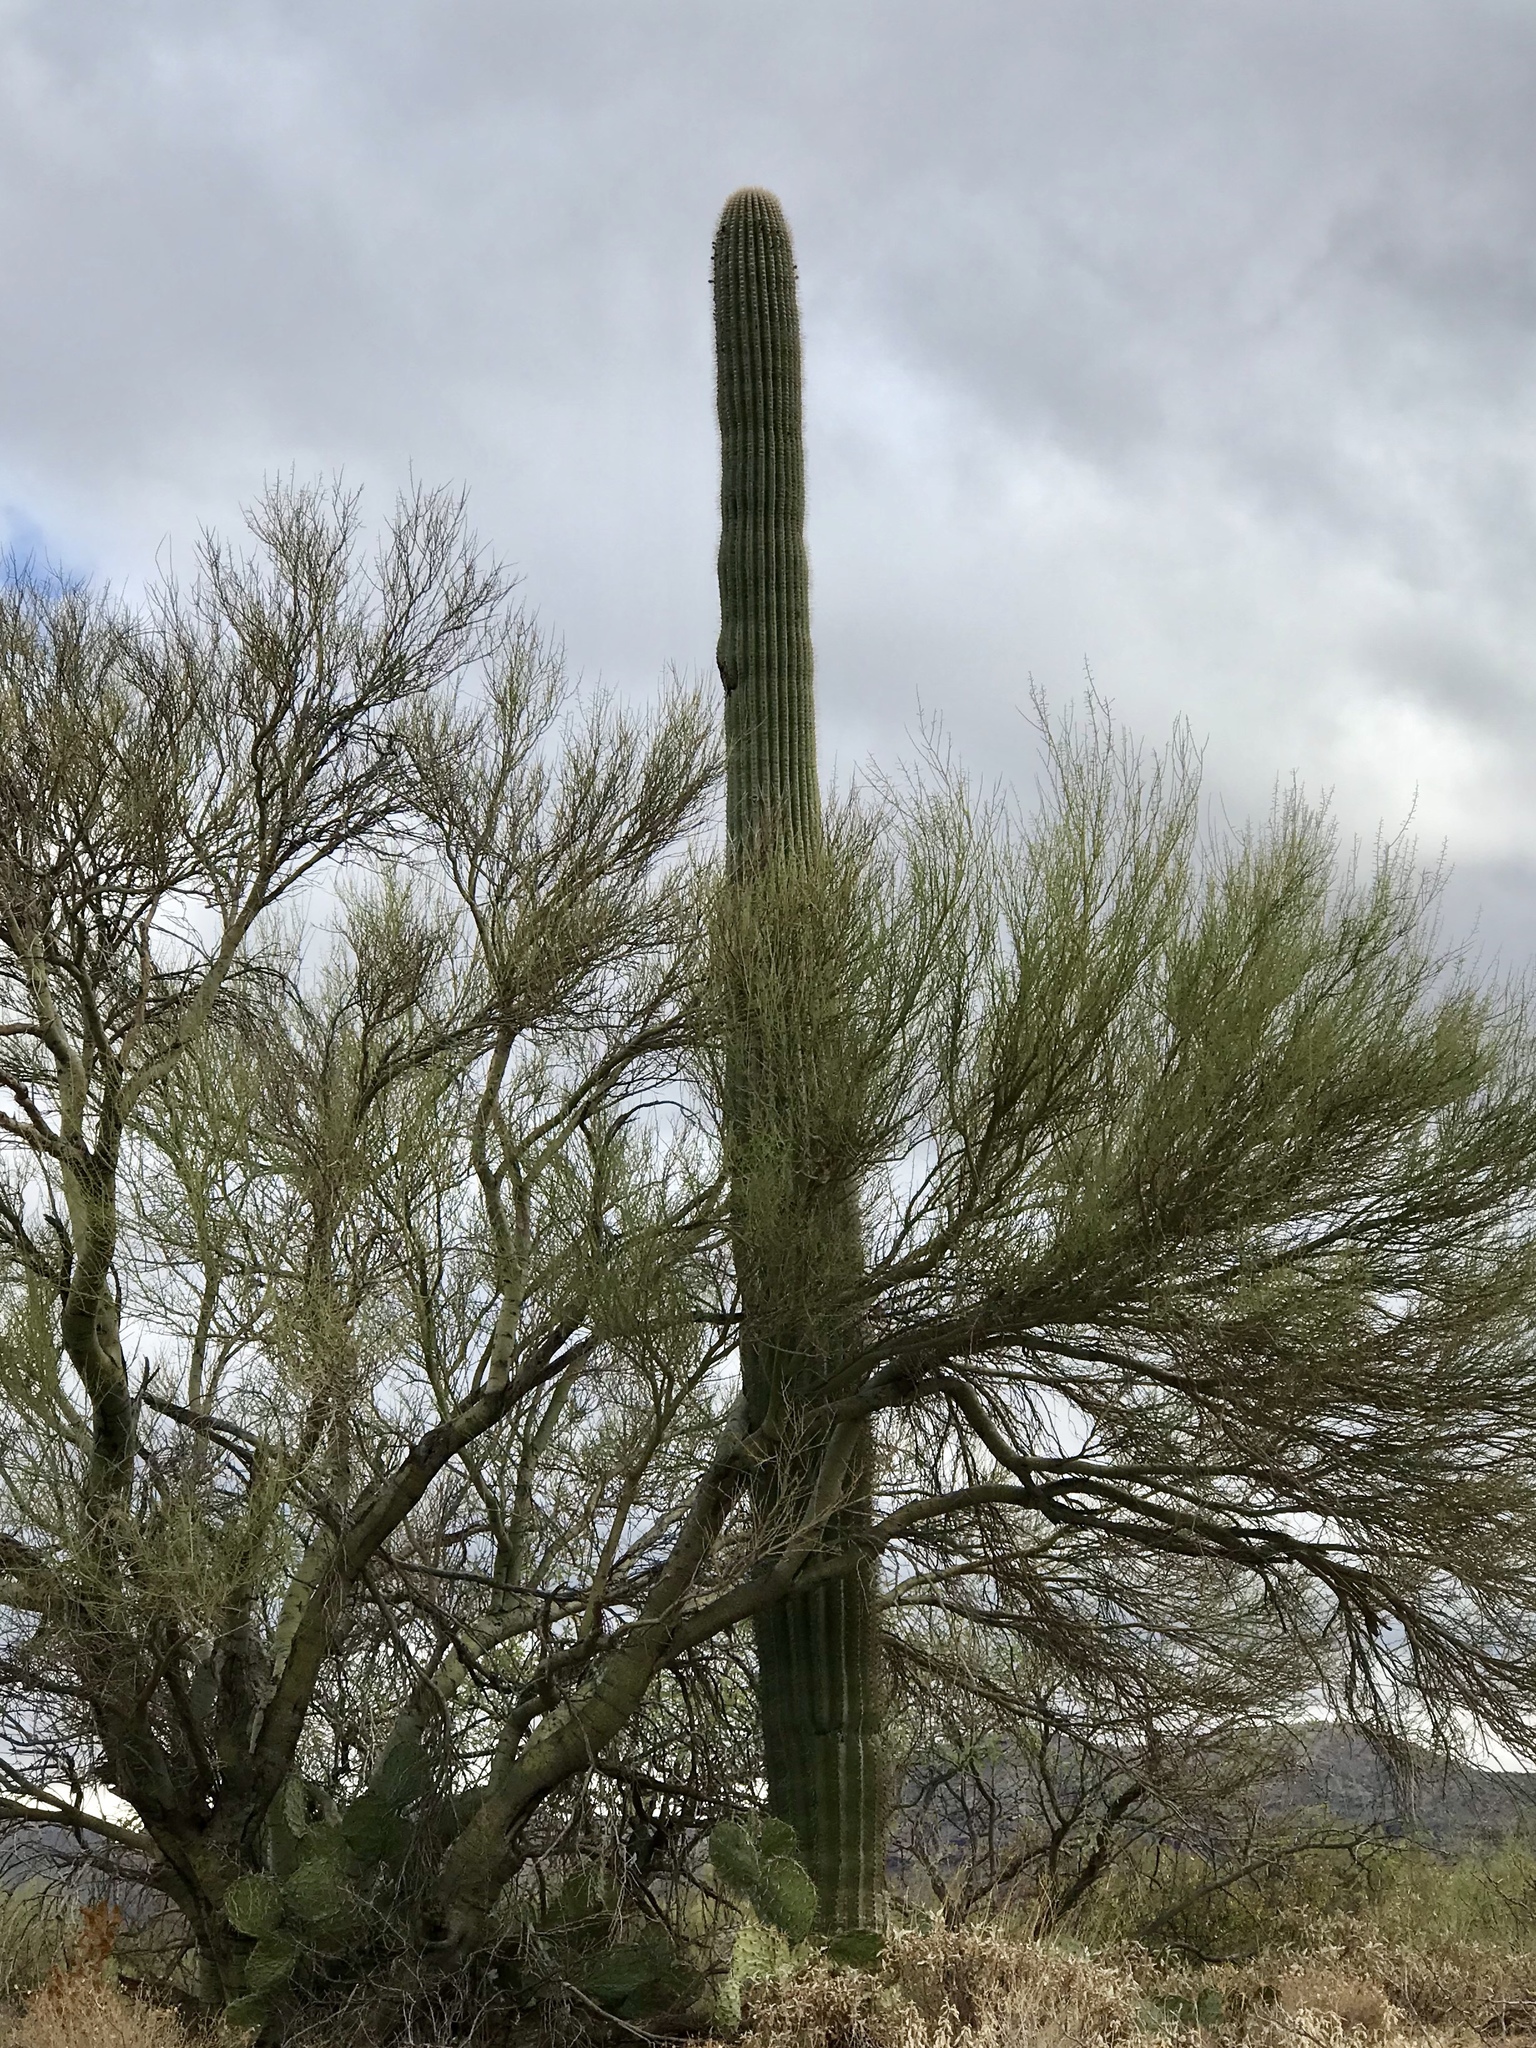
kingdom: Plantae
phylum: Tracheophyta
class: Magnoliopsida
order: Caryophyllales
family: Cactaceae
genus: Carnegiea
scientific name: Carnegiea gigantea
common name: Saguaro
